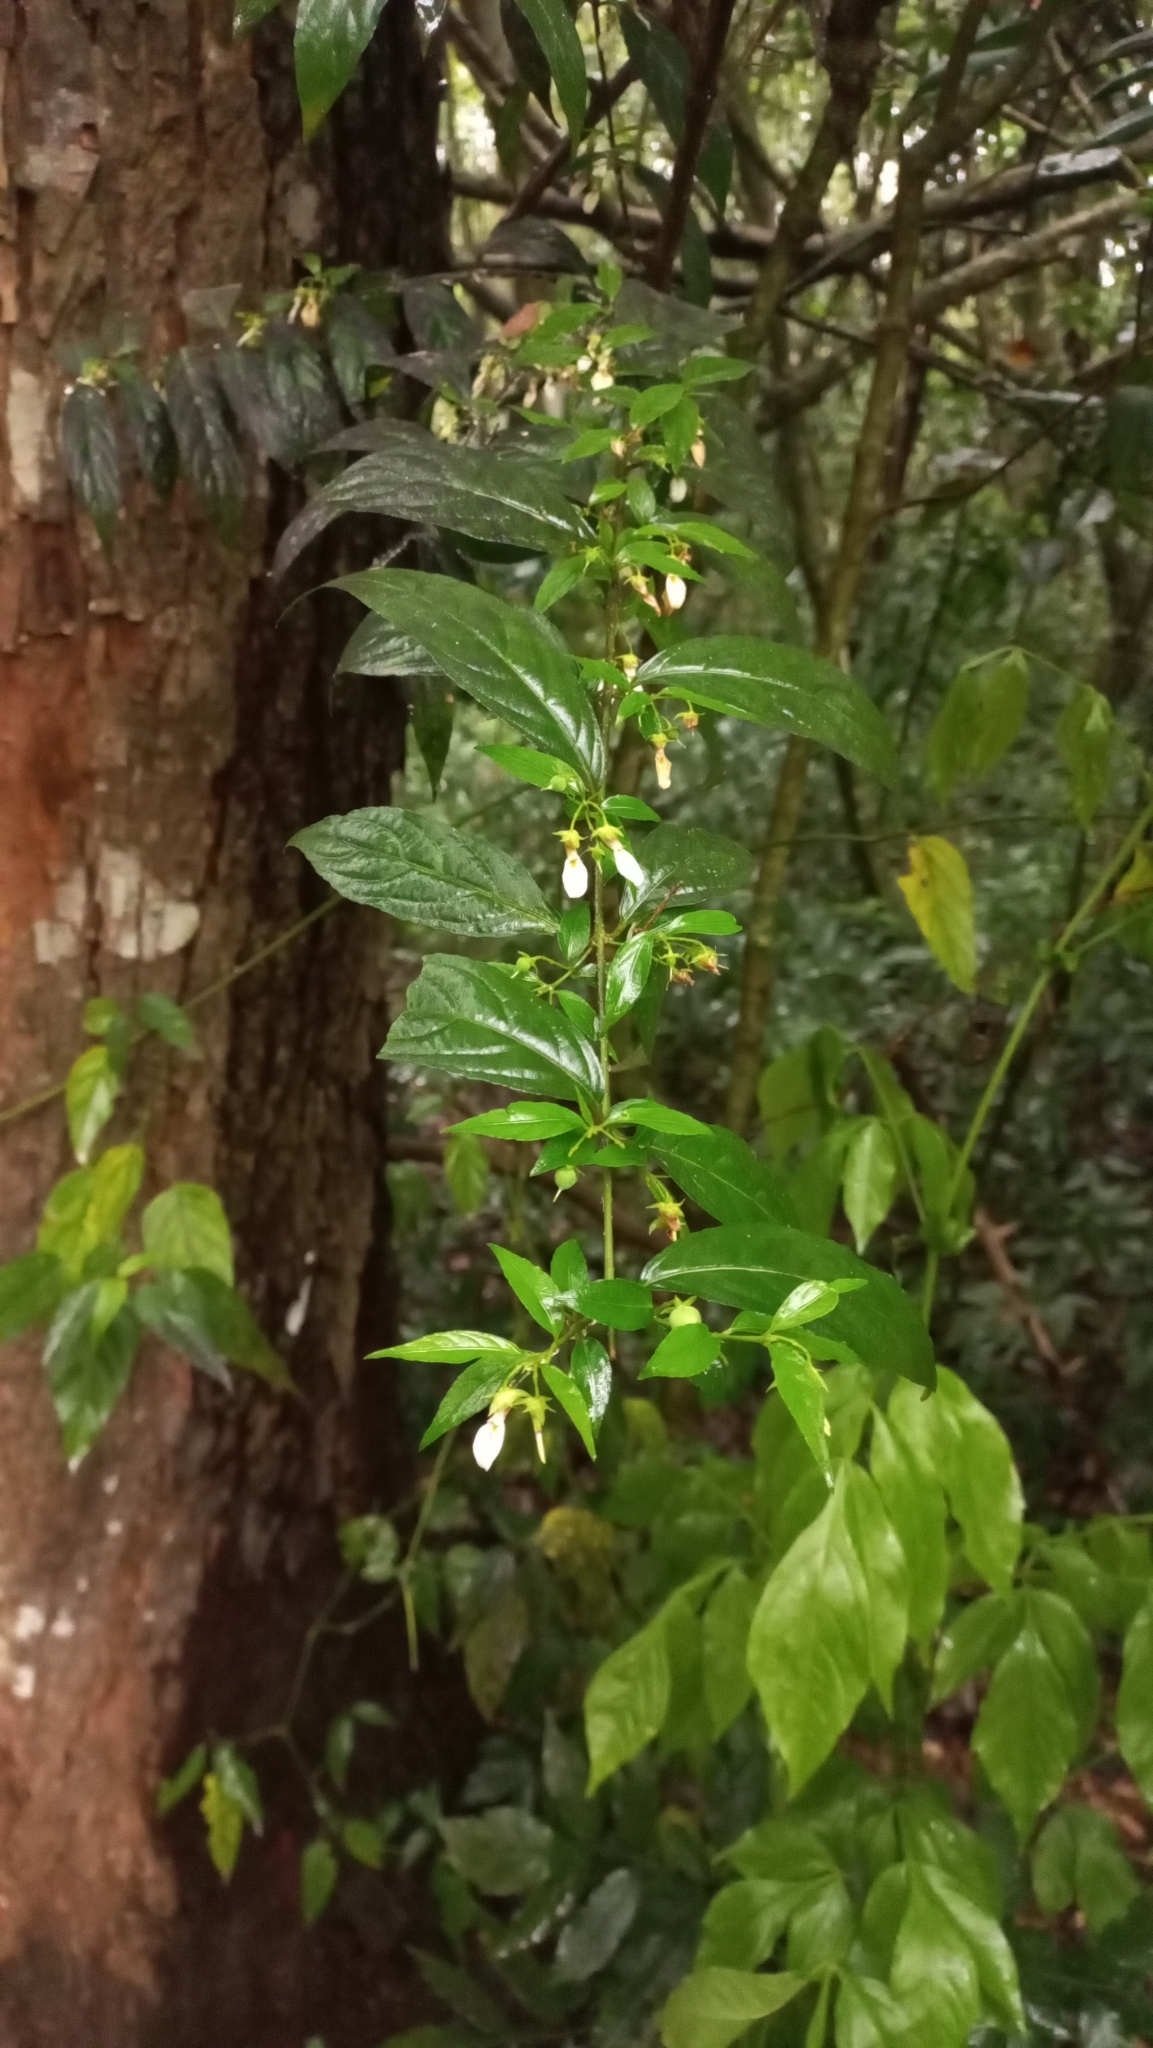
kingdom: Plantae
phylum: Tracheophyta
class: Magnoliopsida
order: Malpighiales
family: Violaceae
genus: Pombalia
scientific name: Pombalia bigibbosa
